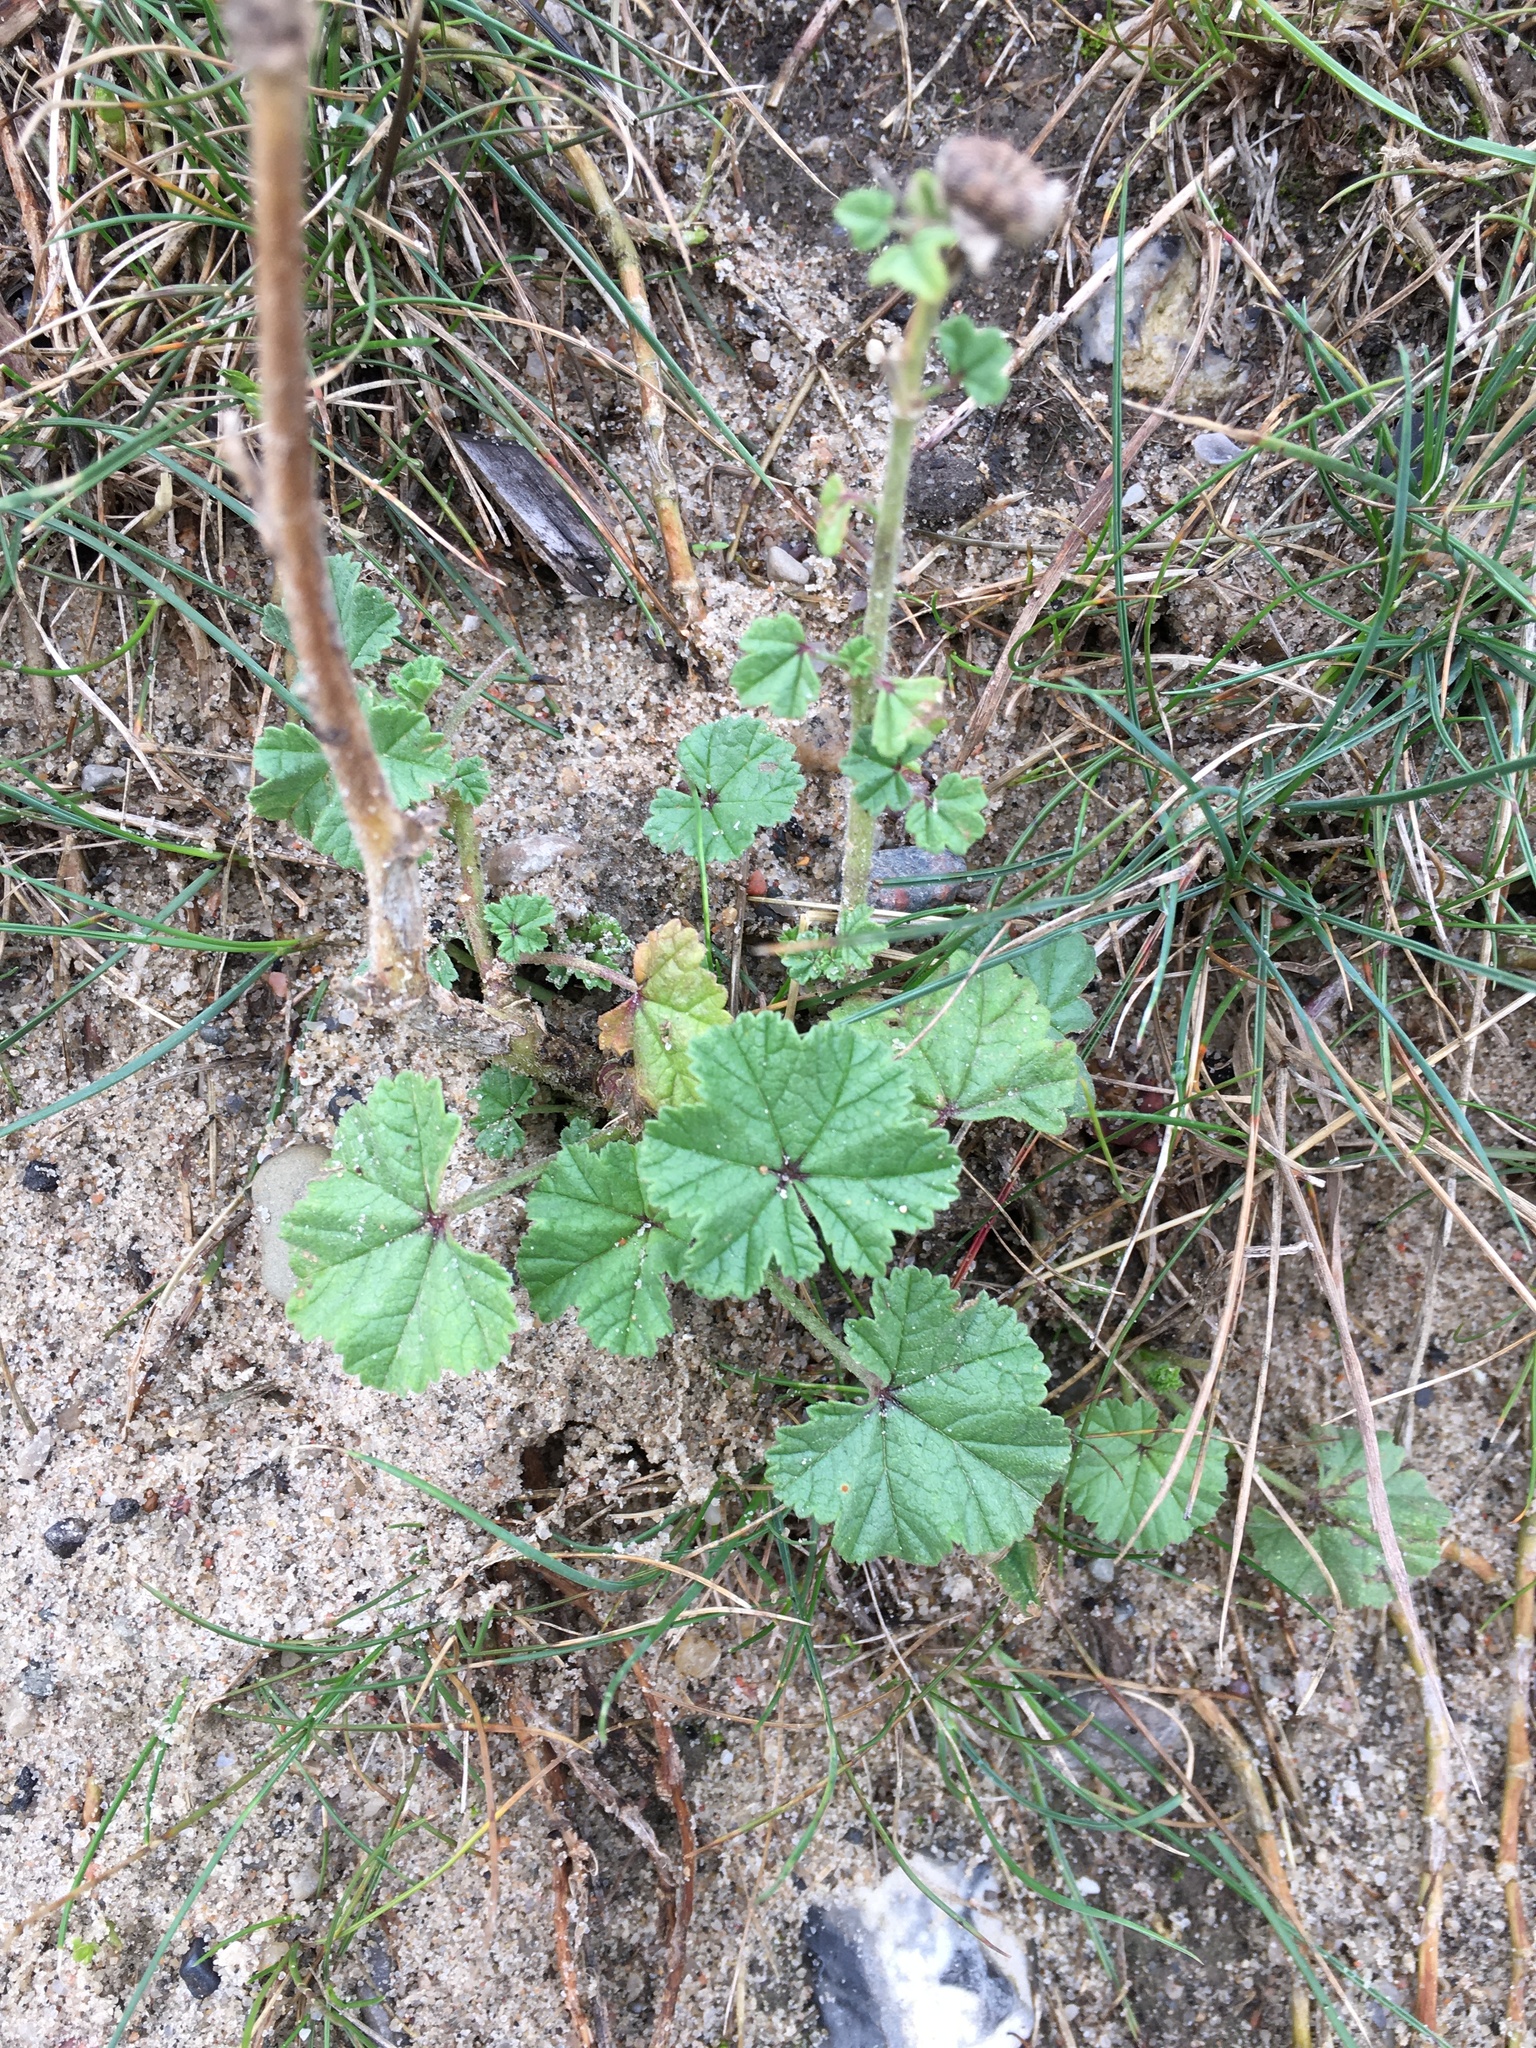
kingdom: Plantae
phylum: Tracheophyta
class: Magnoliopsida
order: Malvales
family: Malvaceae
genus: Malva
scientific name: Malva sylvestris
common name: Common mallow
